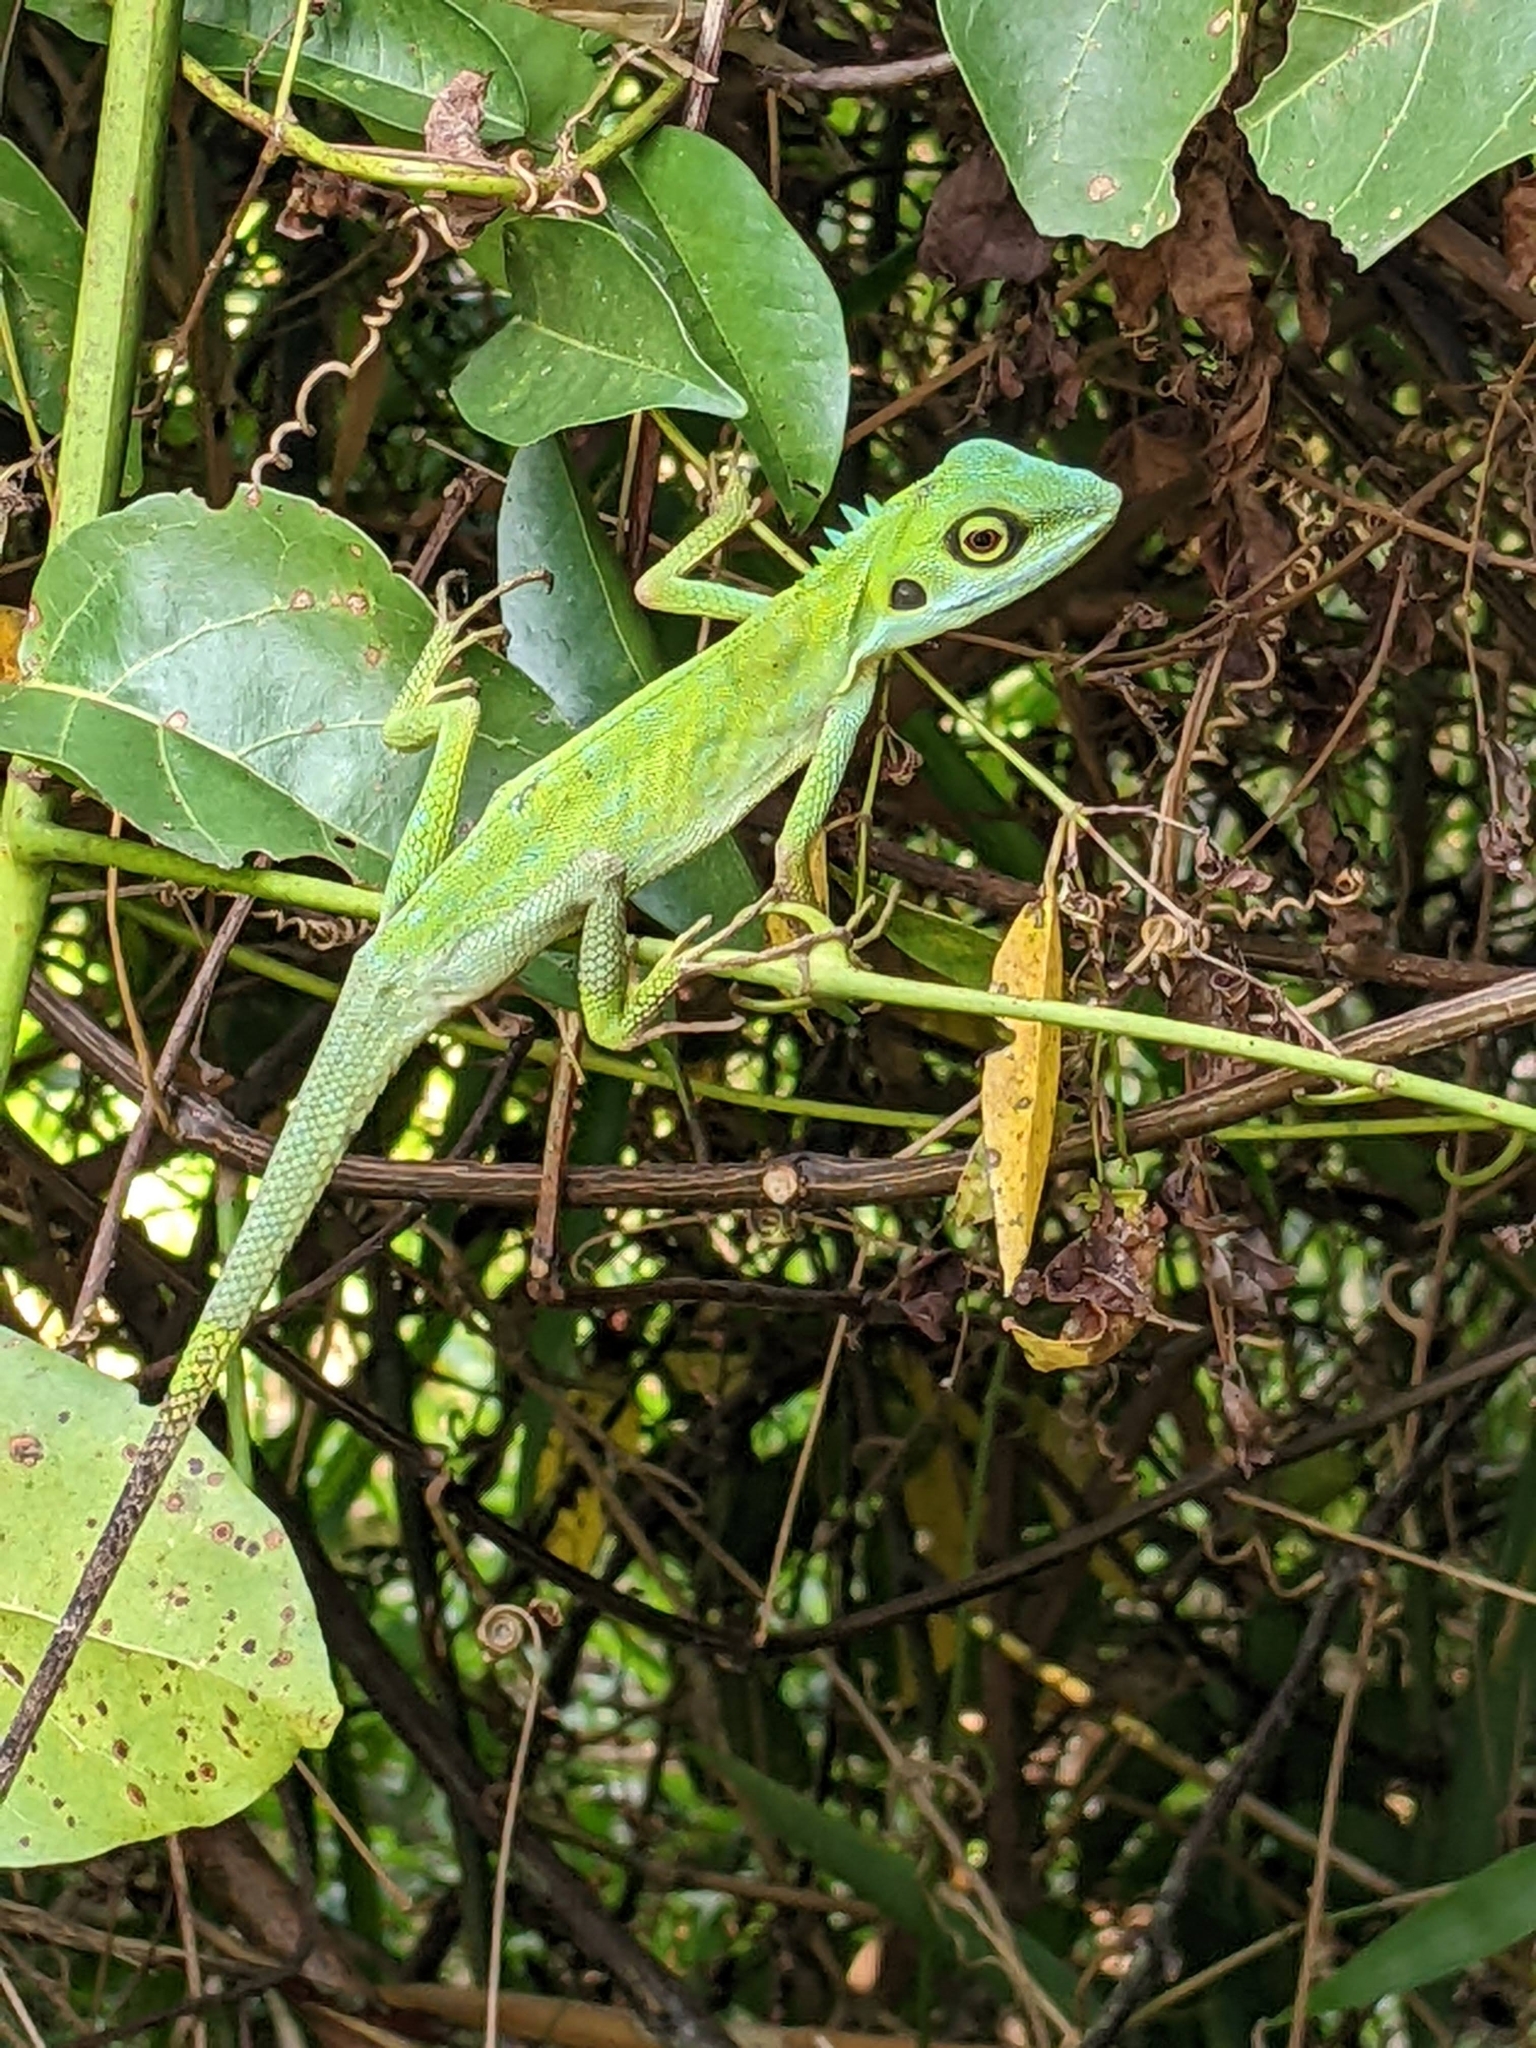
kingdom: Animalia
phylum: Chordata
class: Squamata
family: Agamidae
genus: Bronchocela
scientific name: Bronchocela cristatella
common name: Green crested lizard
